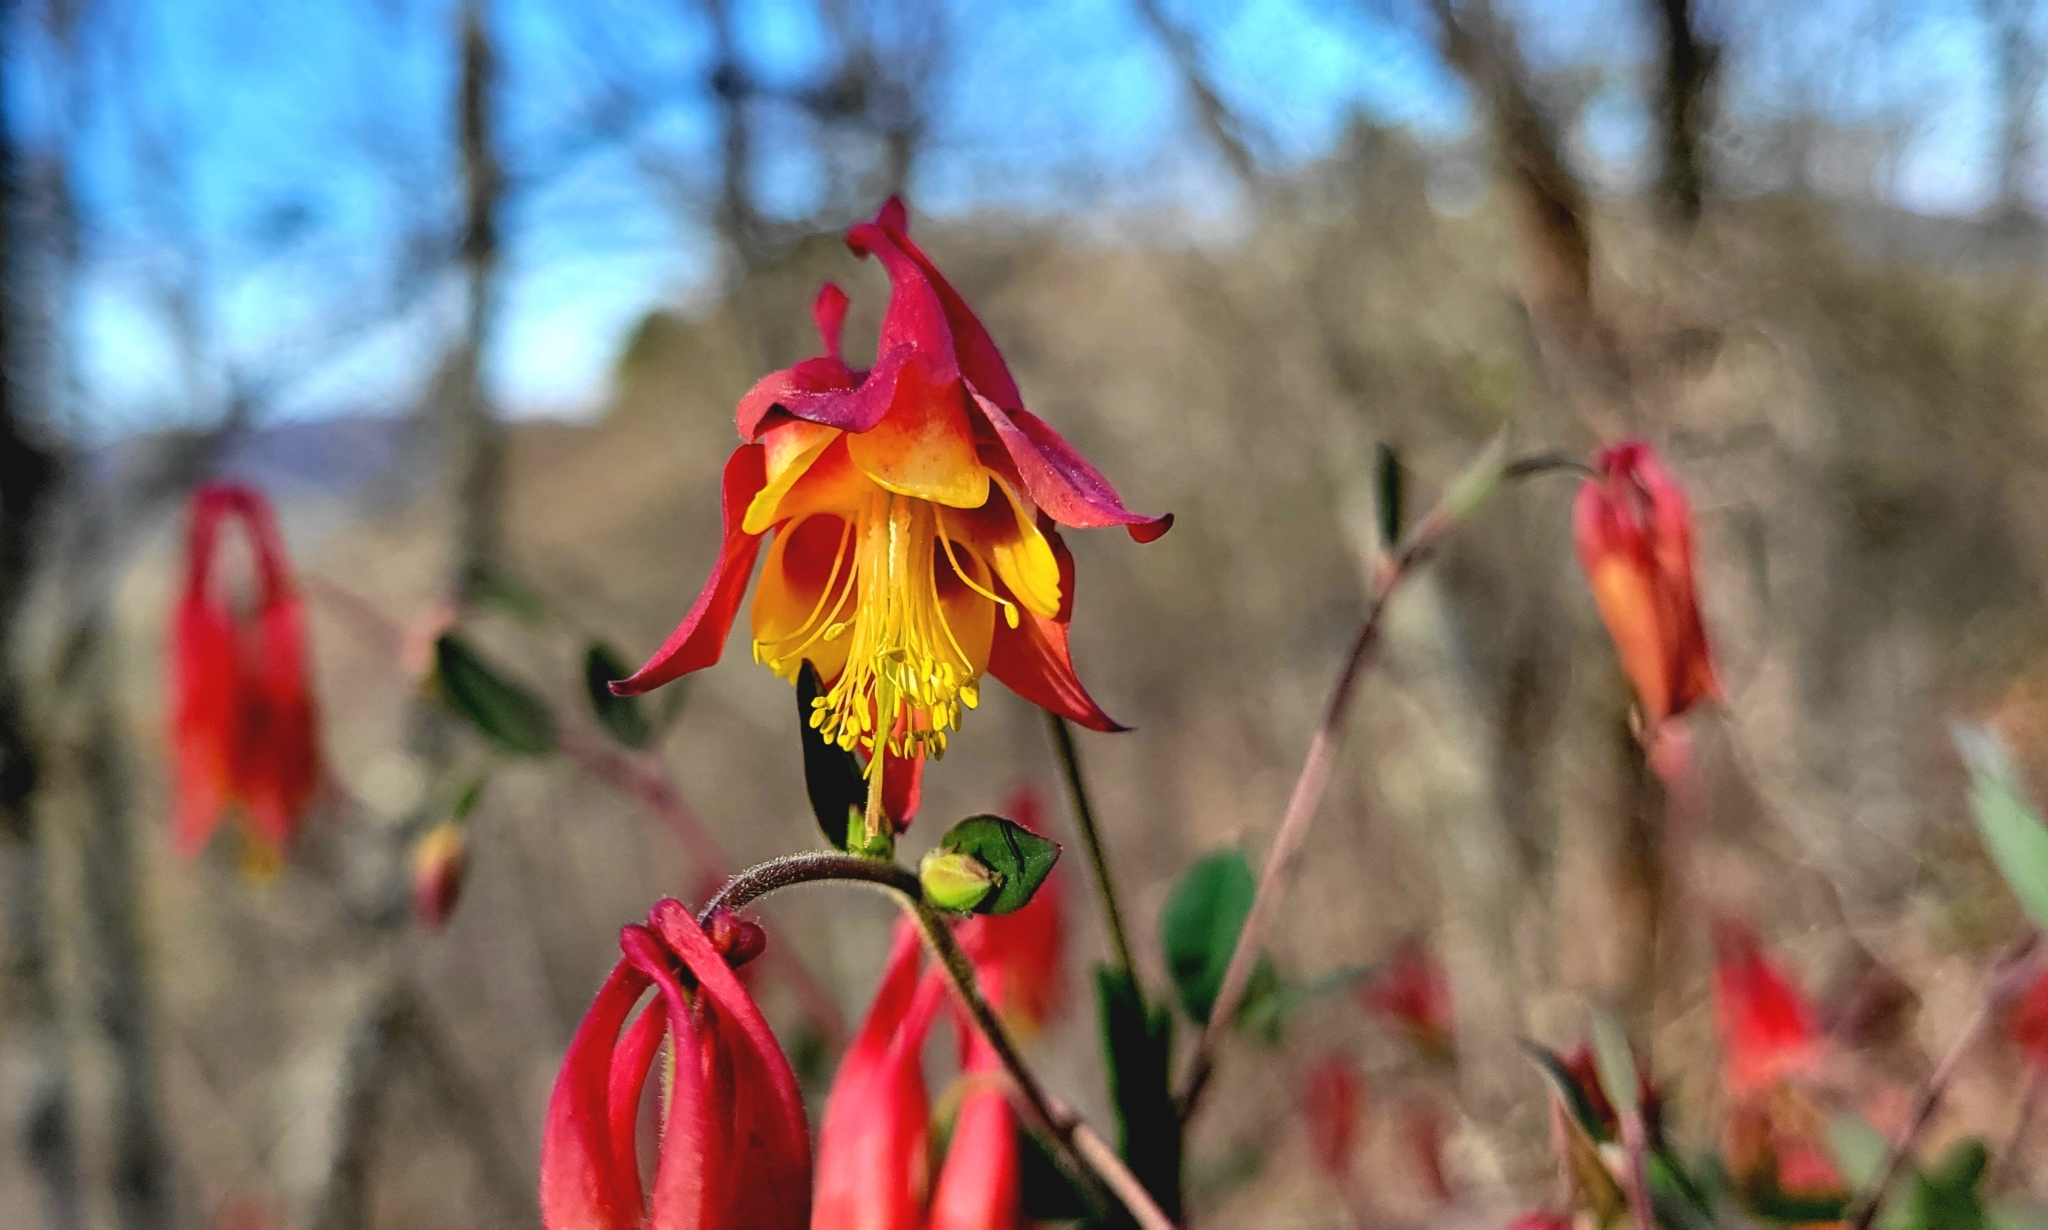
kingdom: Plantae
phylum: Tracheophyta
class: Magnoliopsida
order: Ranunculales
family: Ranunculaceae
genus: Aquilegia
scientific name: Aquilegia canadensis
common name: American columbine
